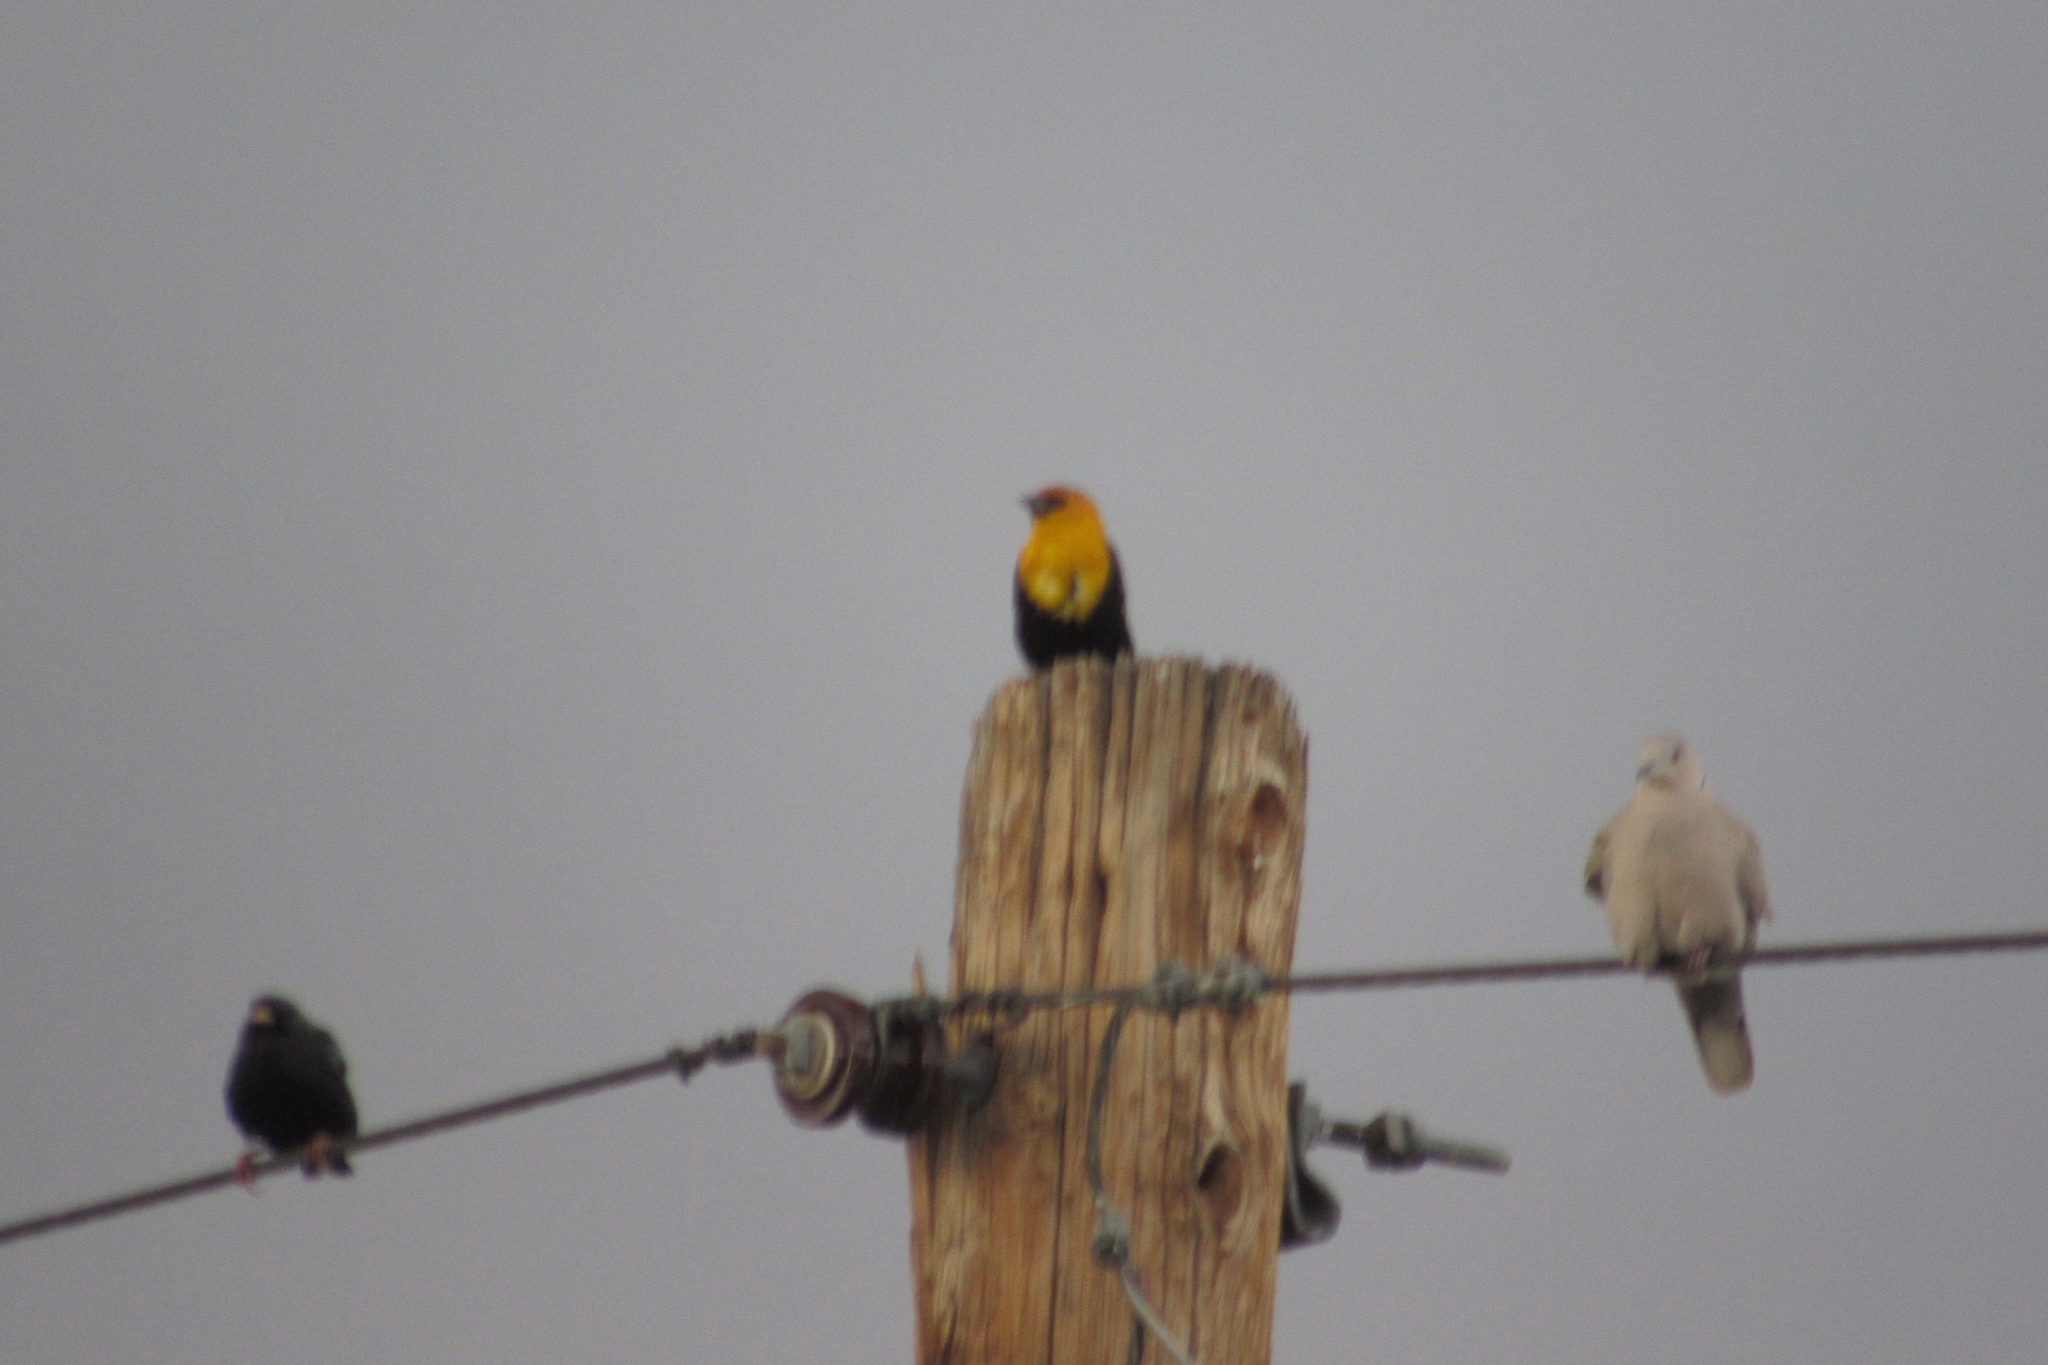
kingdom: Animalia
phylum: Chordata
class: Aves
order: Columbiformes
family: Columbidae
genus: Streptopelia
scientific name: Streptopelia decaocto
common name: Eurasian collared dove
